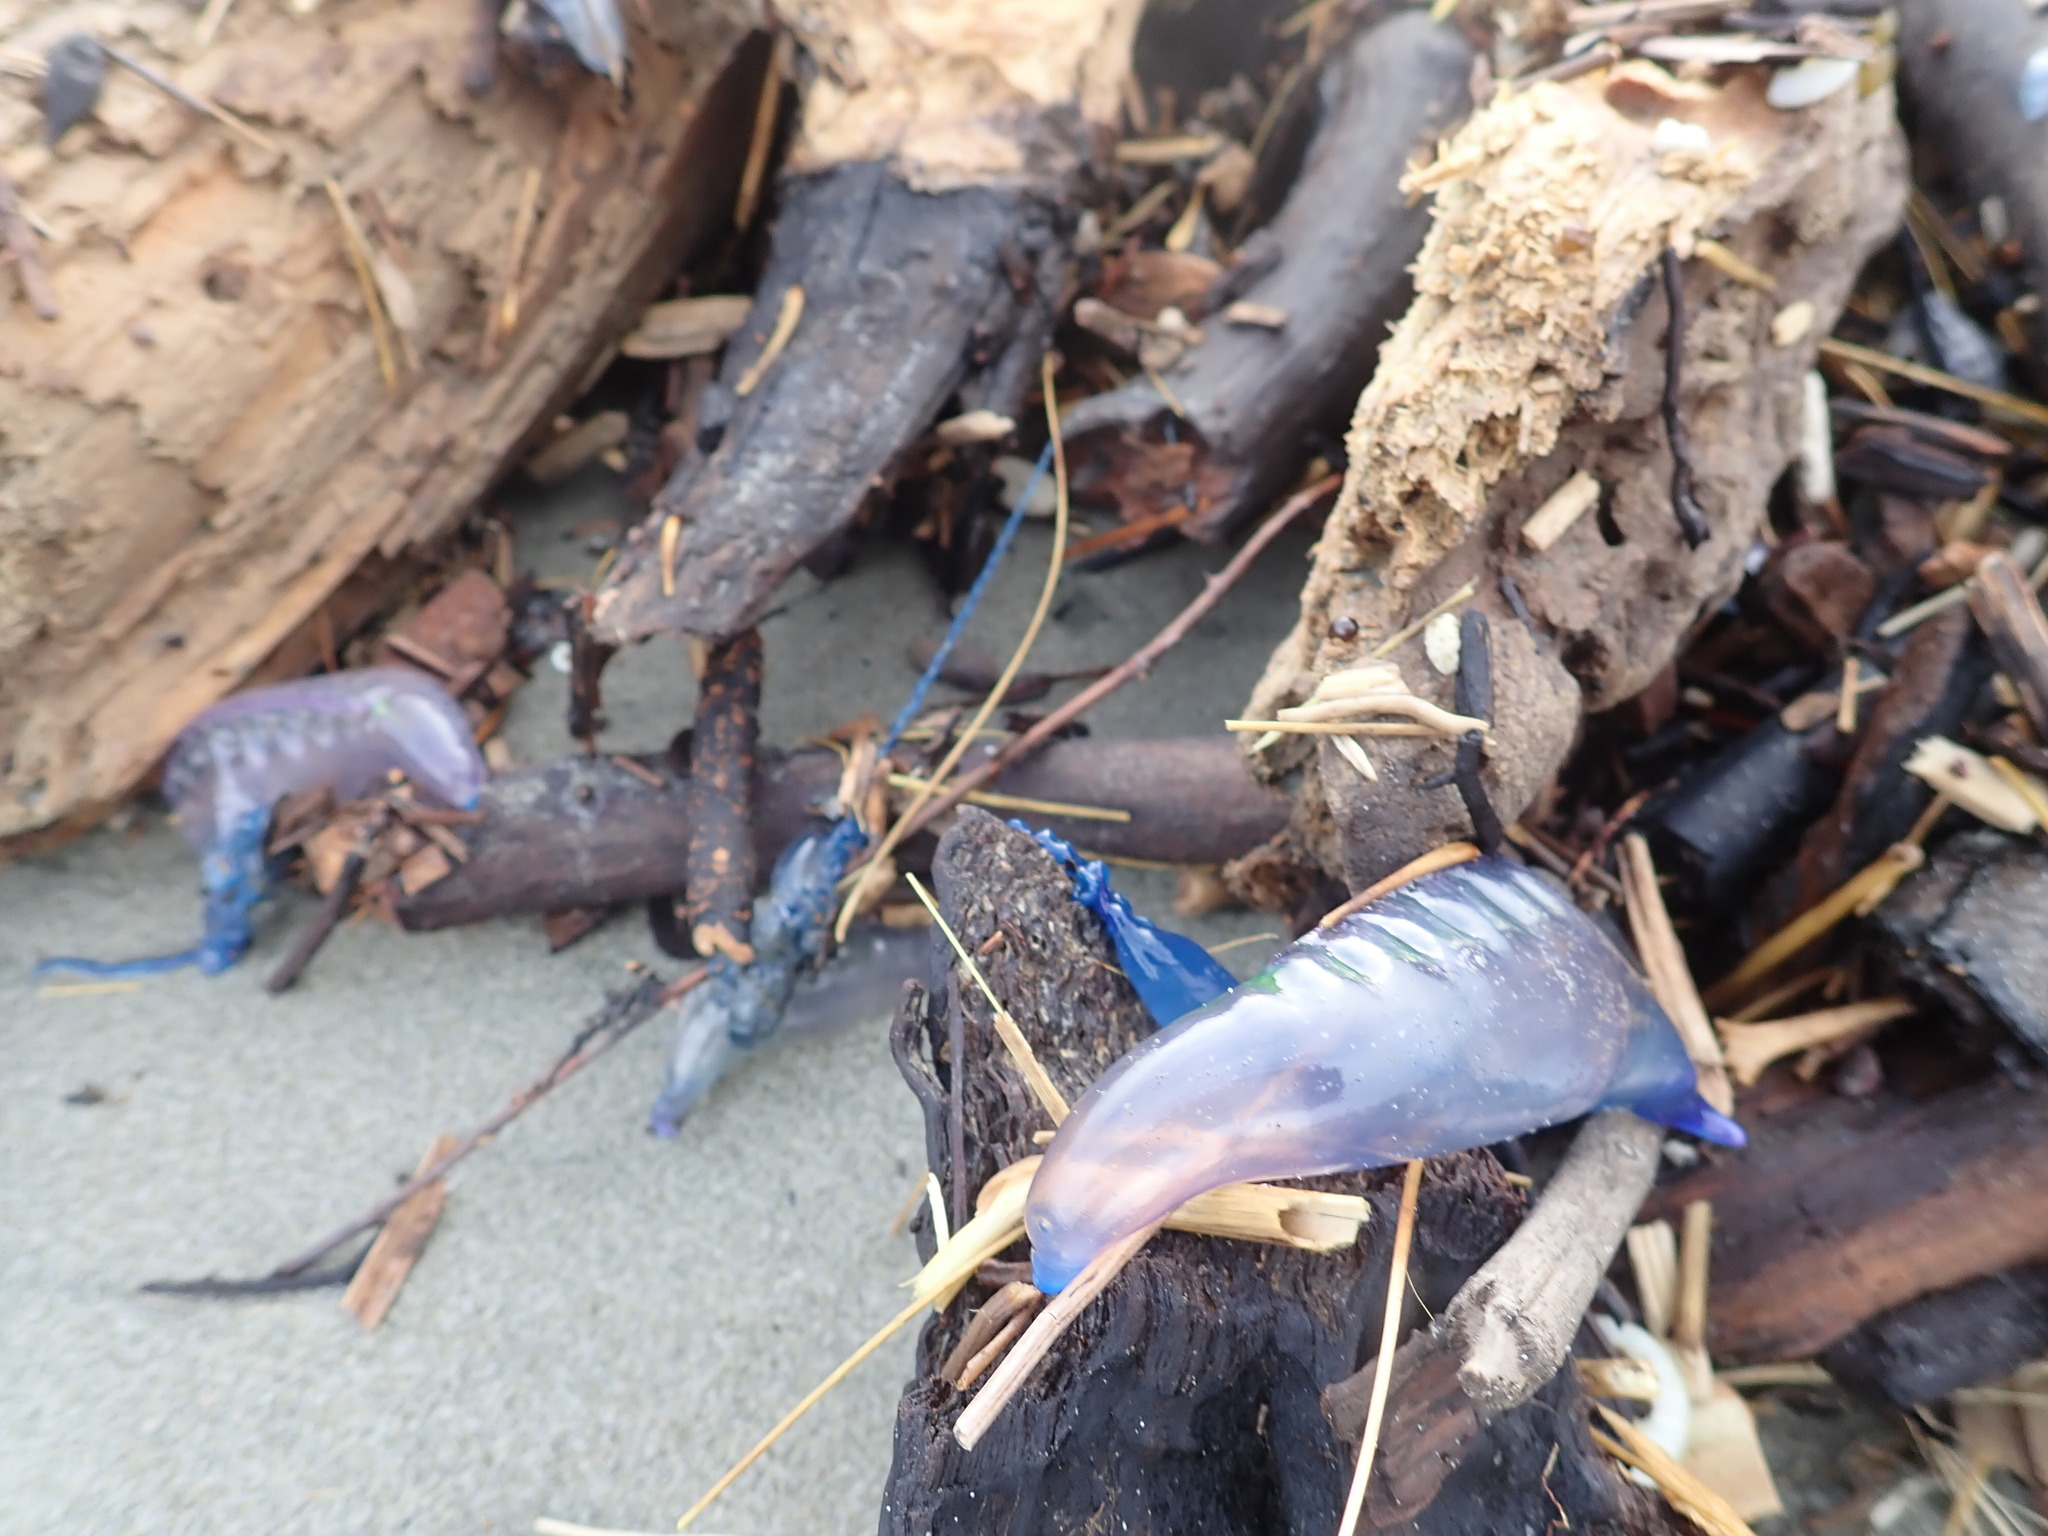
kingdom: Animalia
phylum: Cnidaria
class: Hydrozoa
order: Siphonophorae
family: Physaliidae
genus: Physalia
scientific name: Physalia physalis
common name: Portuguese man-of-war
